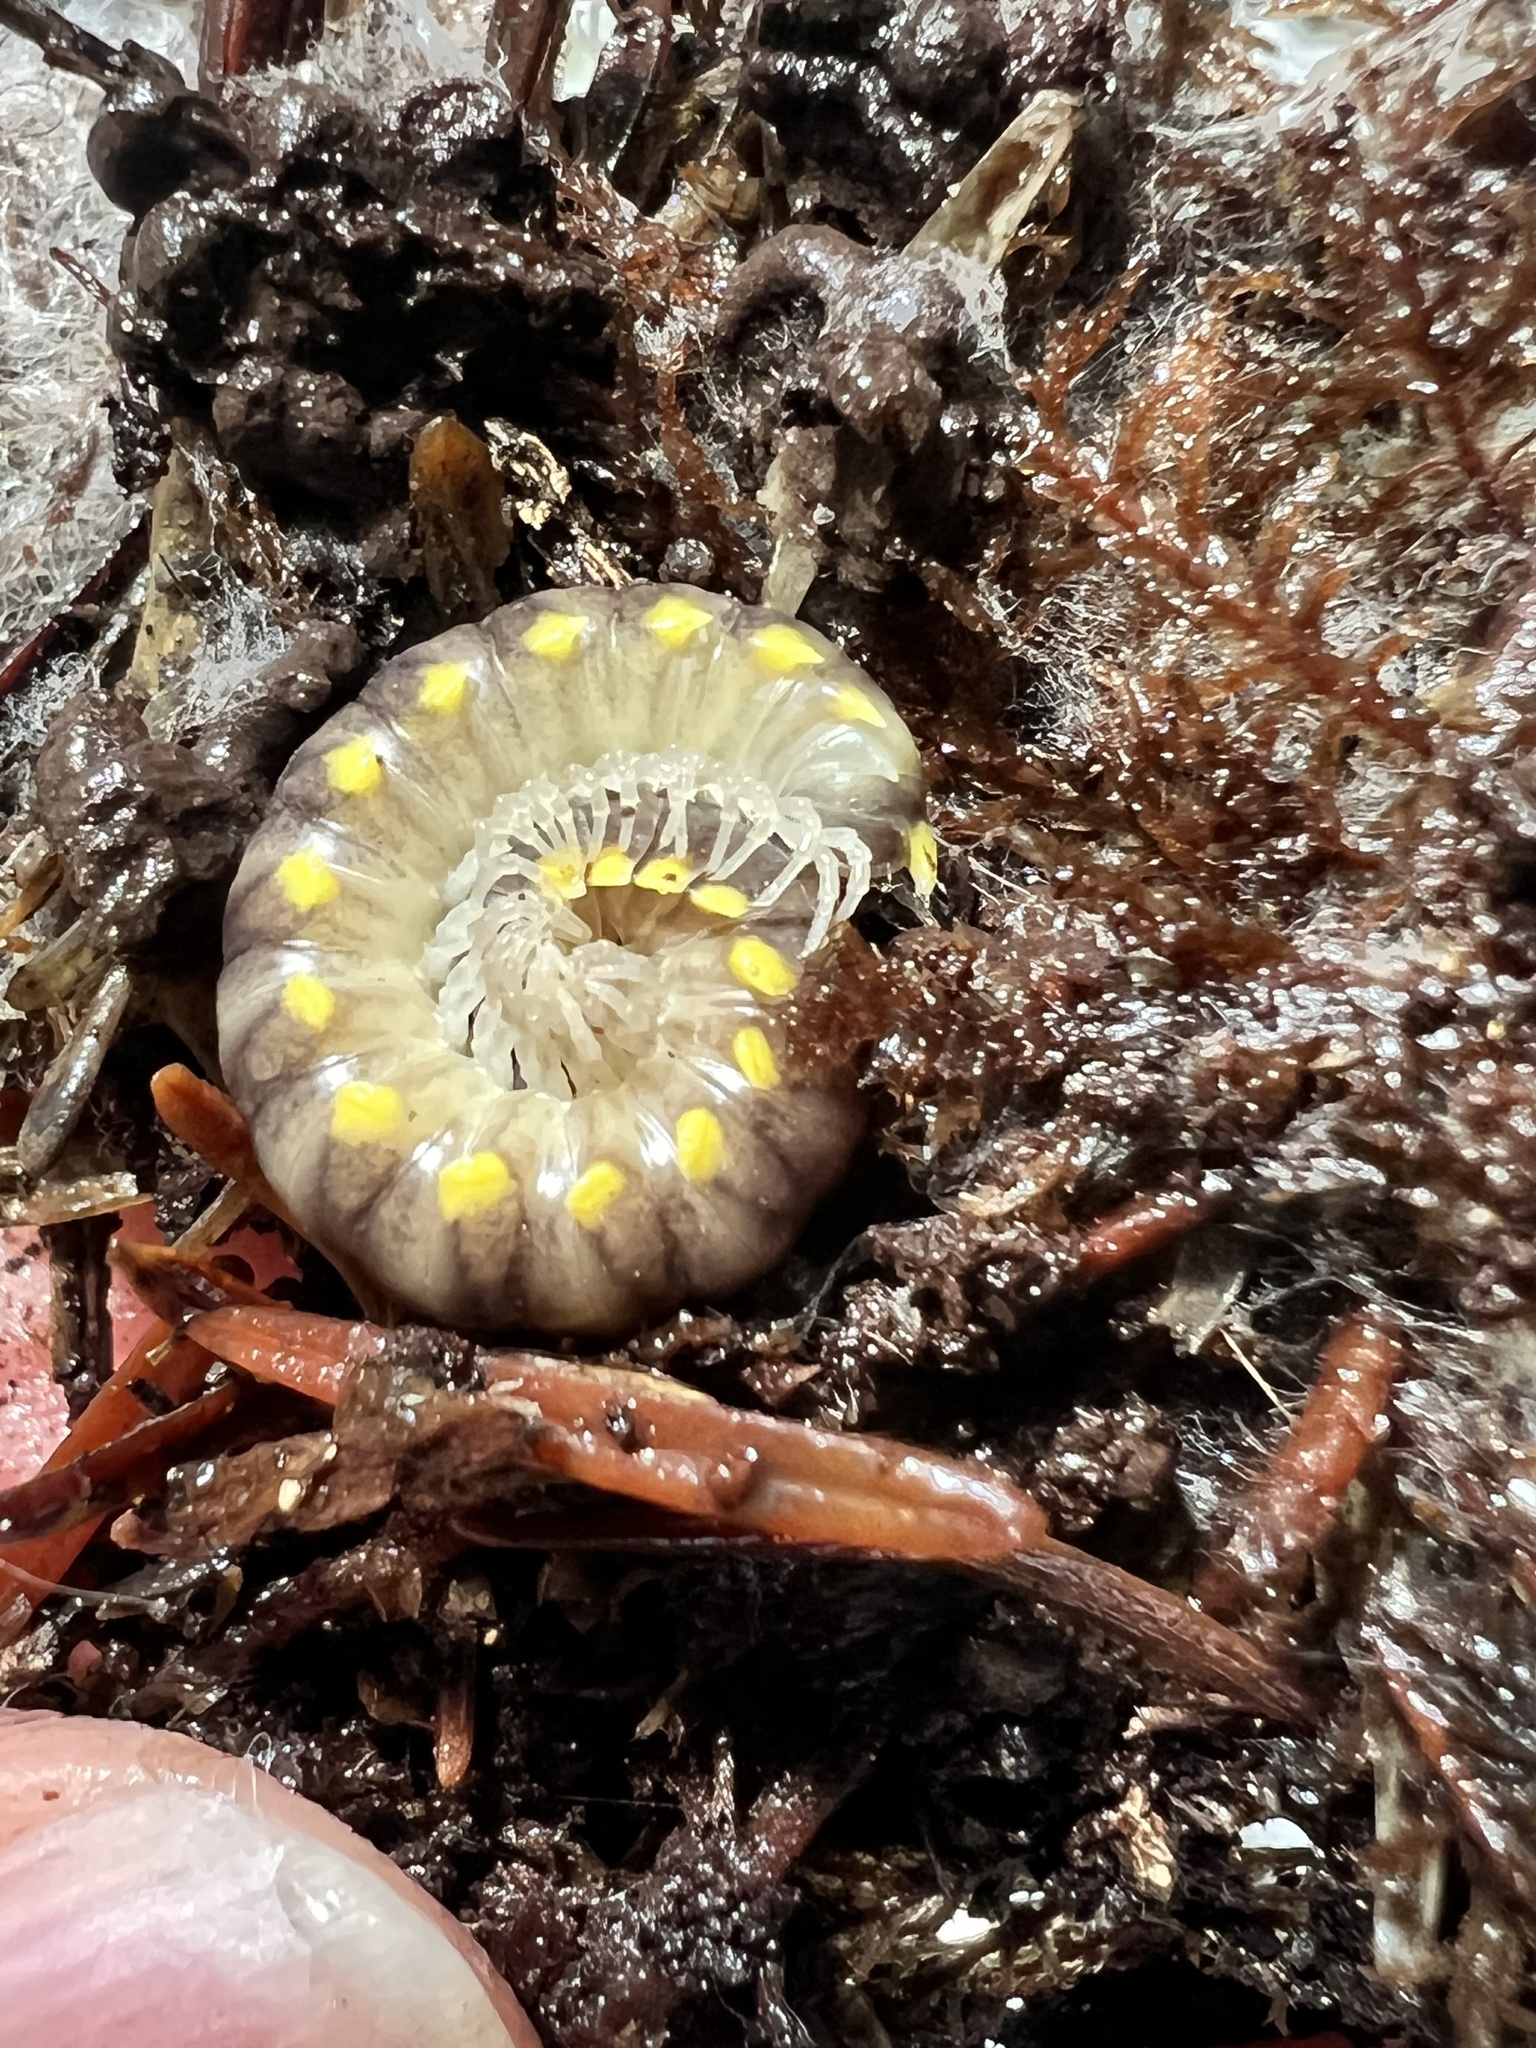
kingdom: Animalia
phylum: Arthropoda
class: Diplopoda
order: Polydesmida
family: Xystodesmidae
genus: Harpaphe
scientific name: Harpaphe haydeniana
